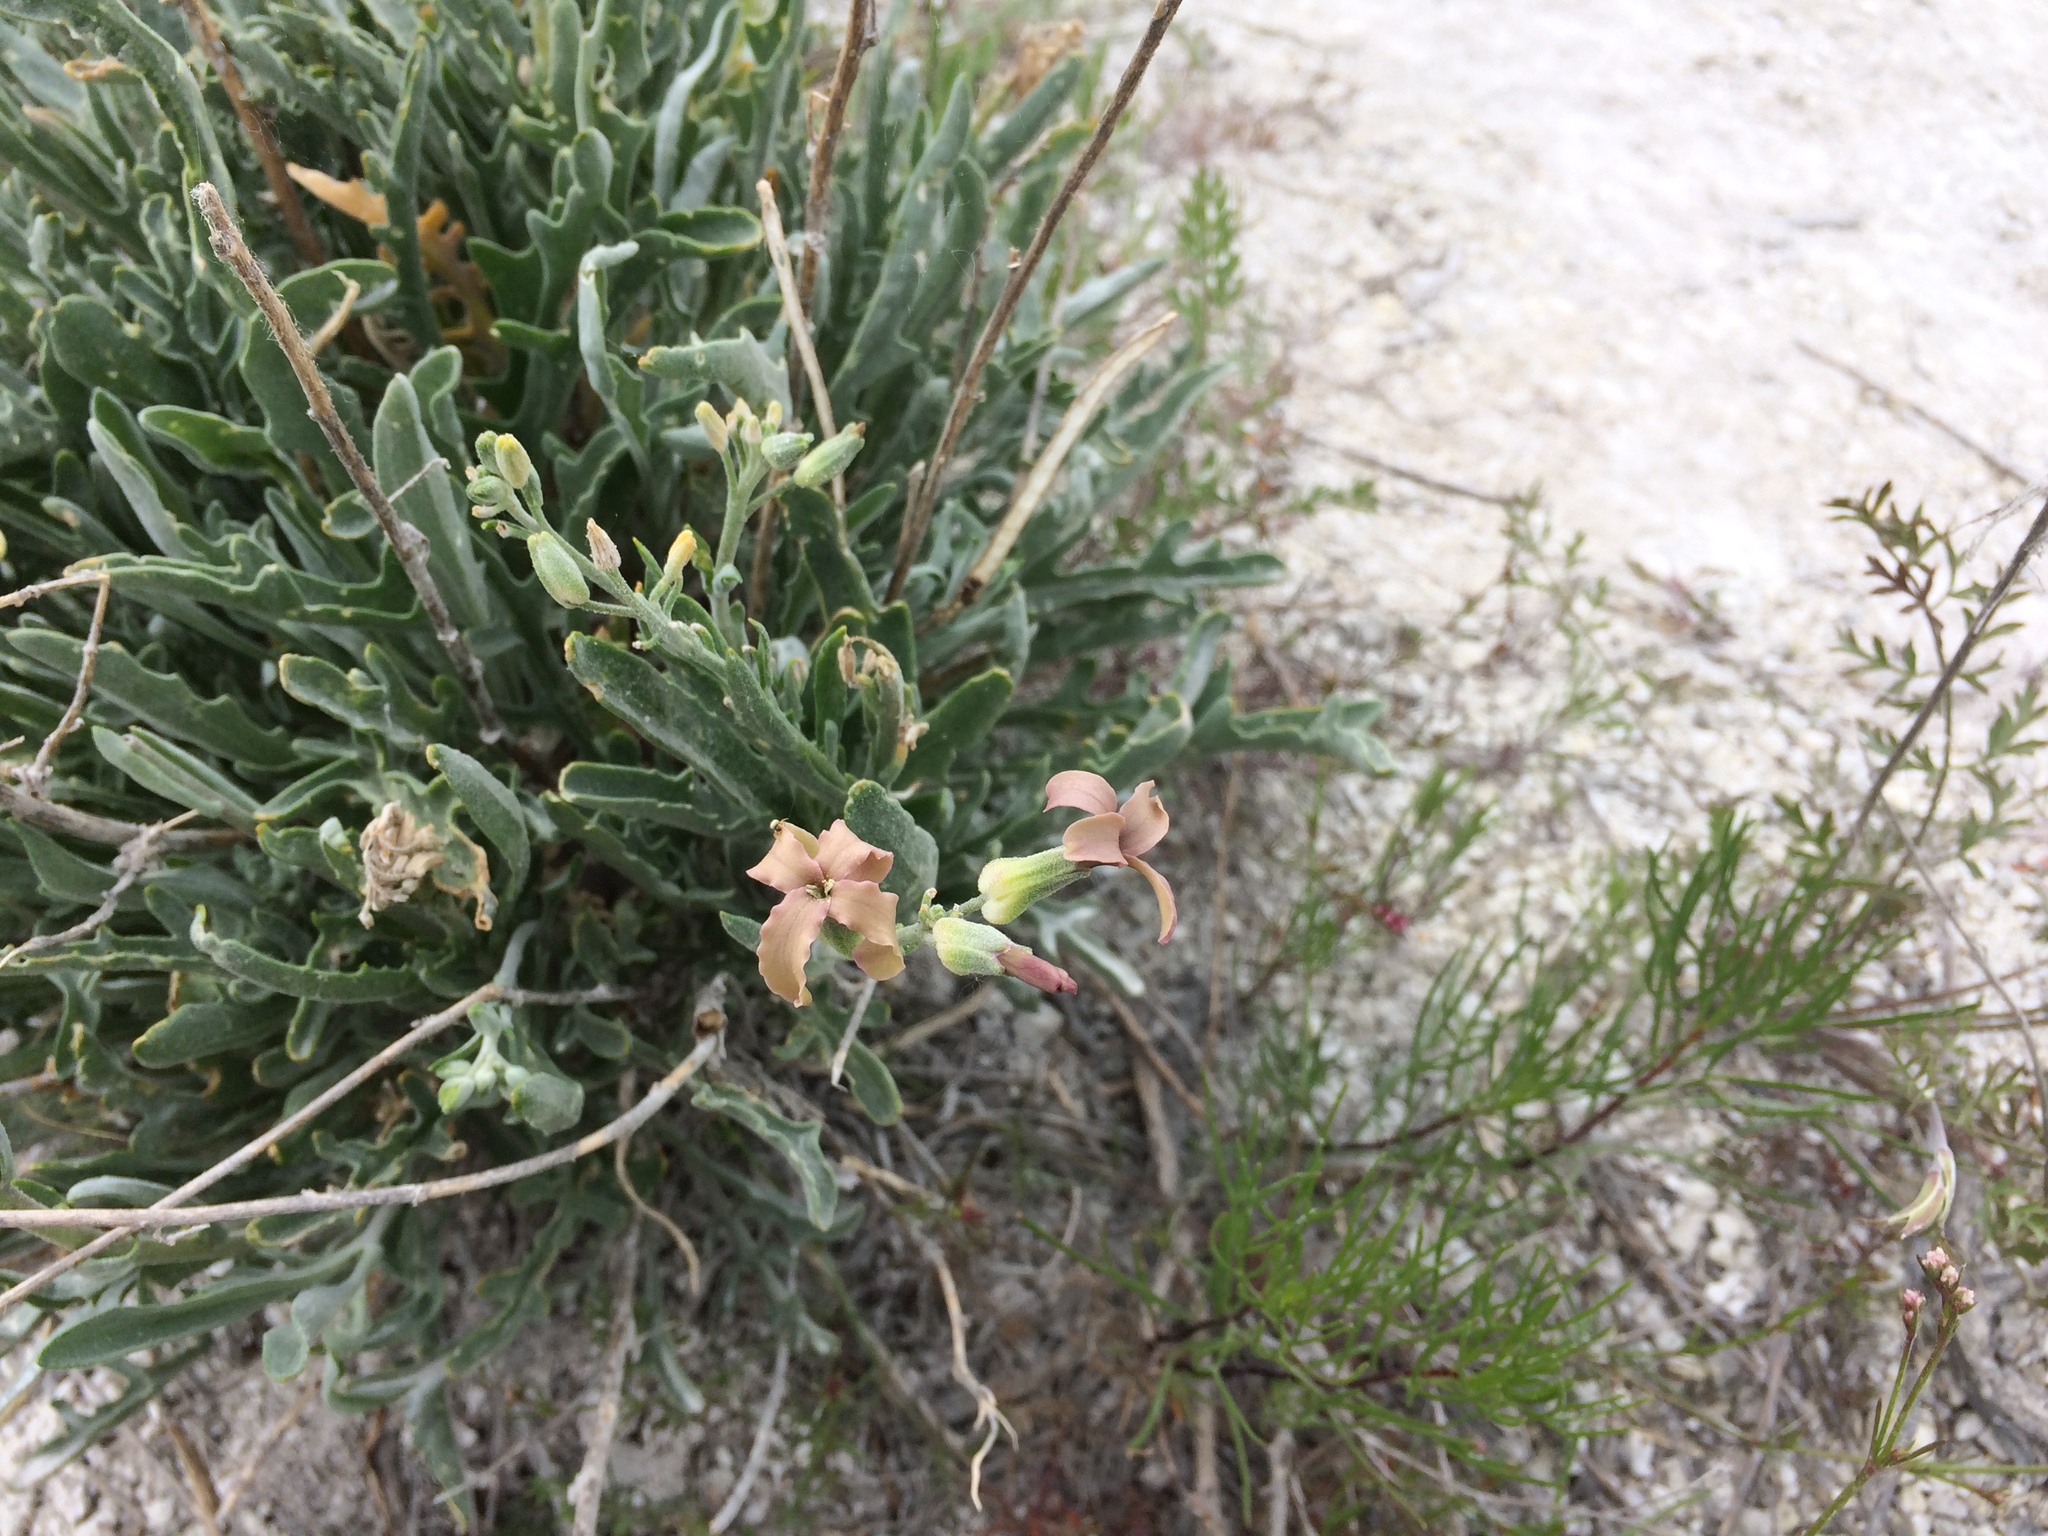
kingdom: Plantae
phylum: Tracheophyta
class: Magnoliopsida
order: Brassicales
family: Brassicaceae
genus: Matthiola
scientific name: Matthiola fragrans
